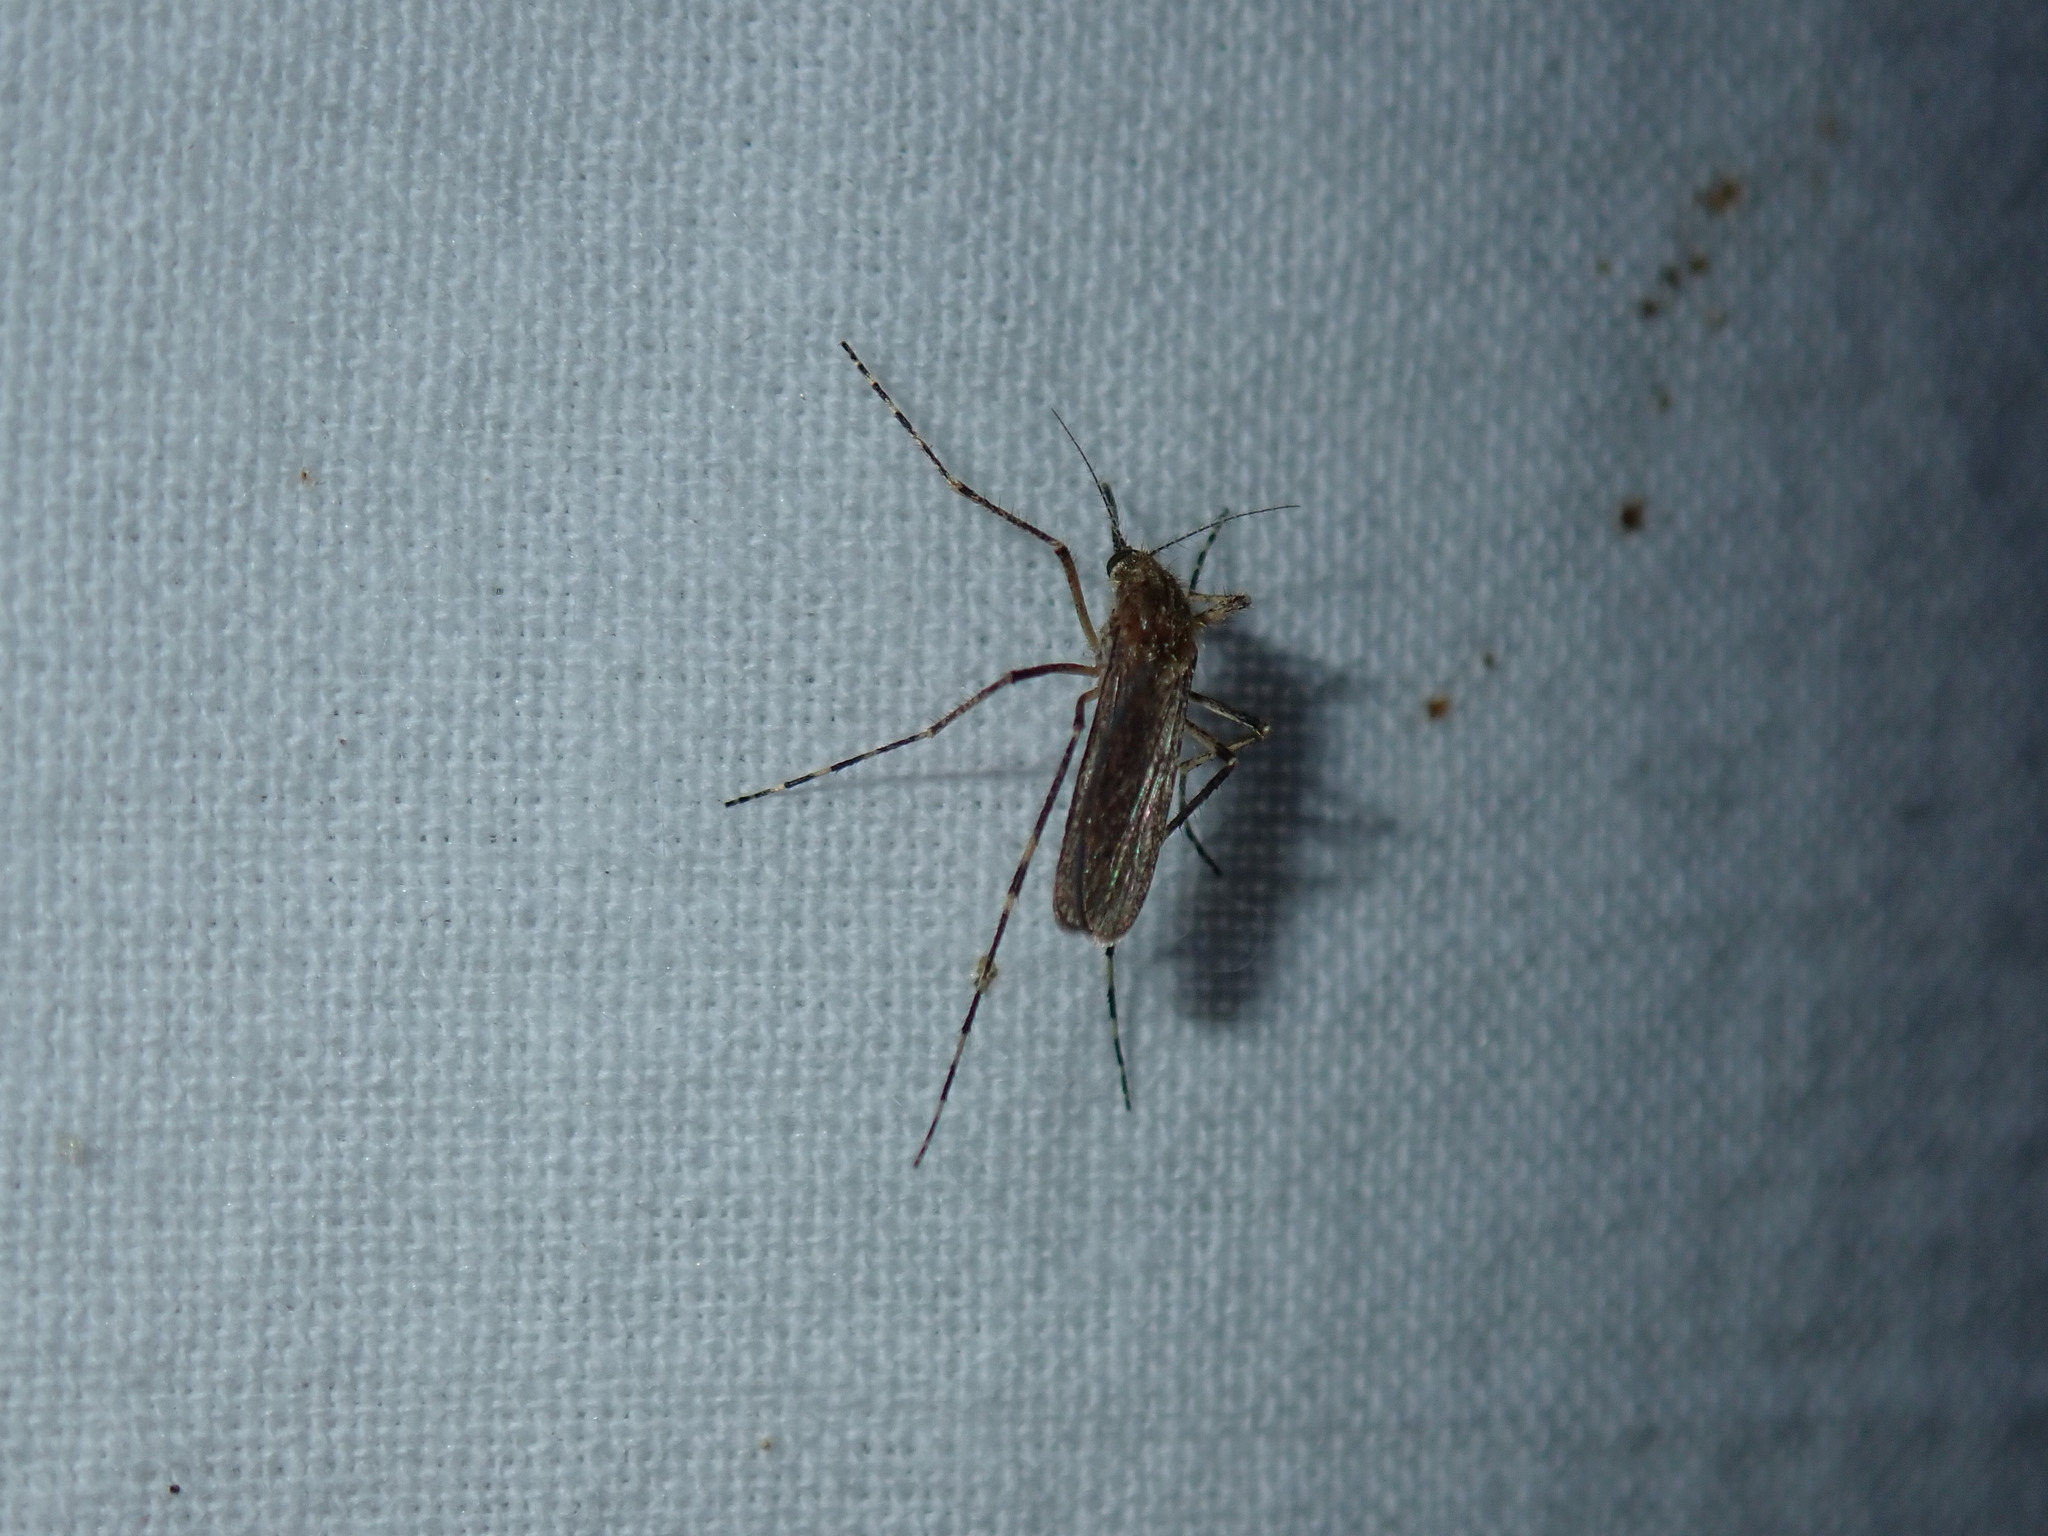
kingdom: Animalia
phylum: Arthropoda
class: Insecta
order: Diptera
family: Culicidae
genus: Coquillettidia
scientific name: Coquillettidia perturbans
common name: Cattail mosquito
